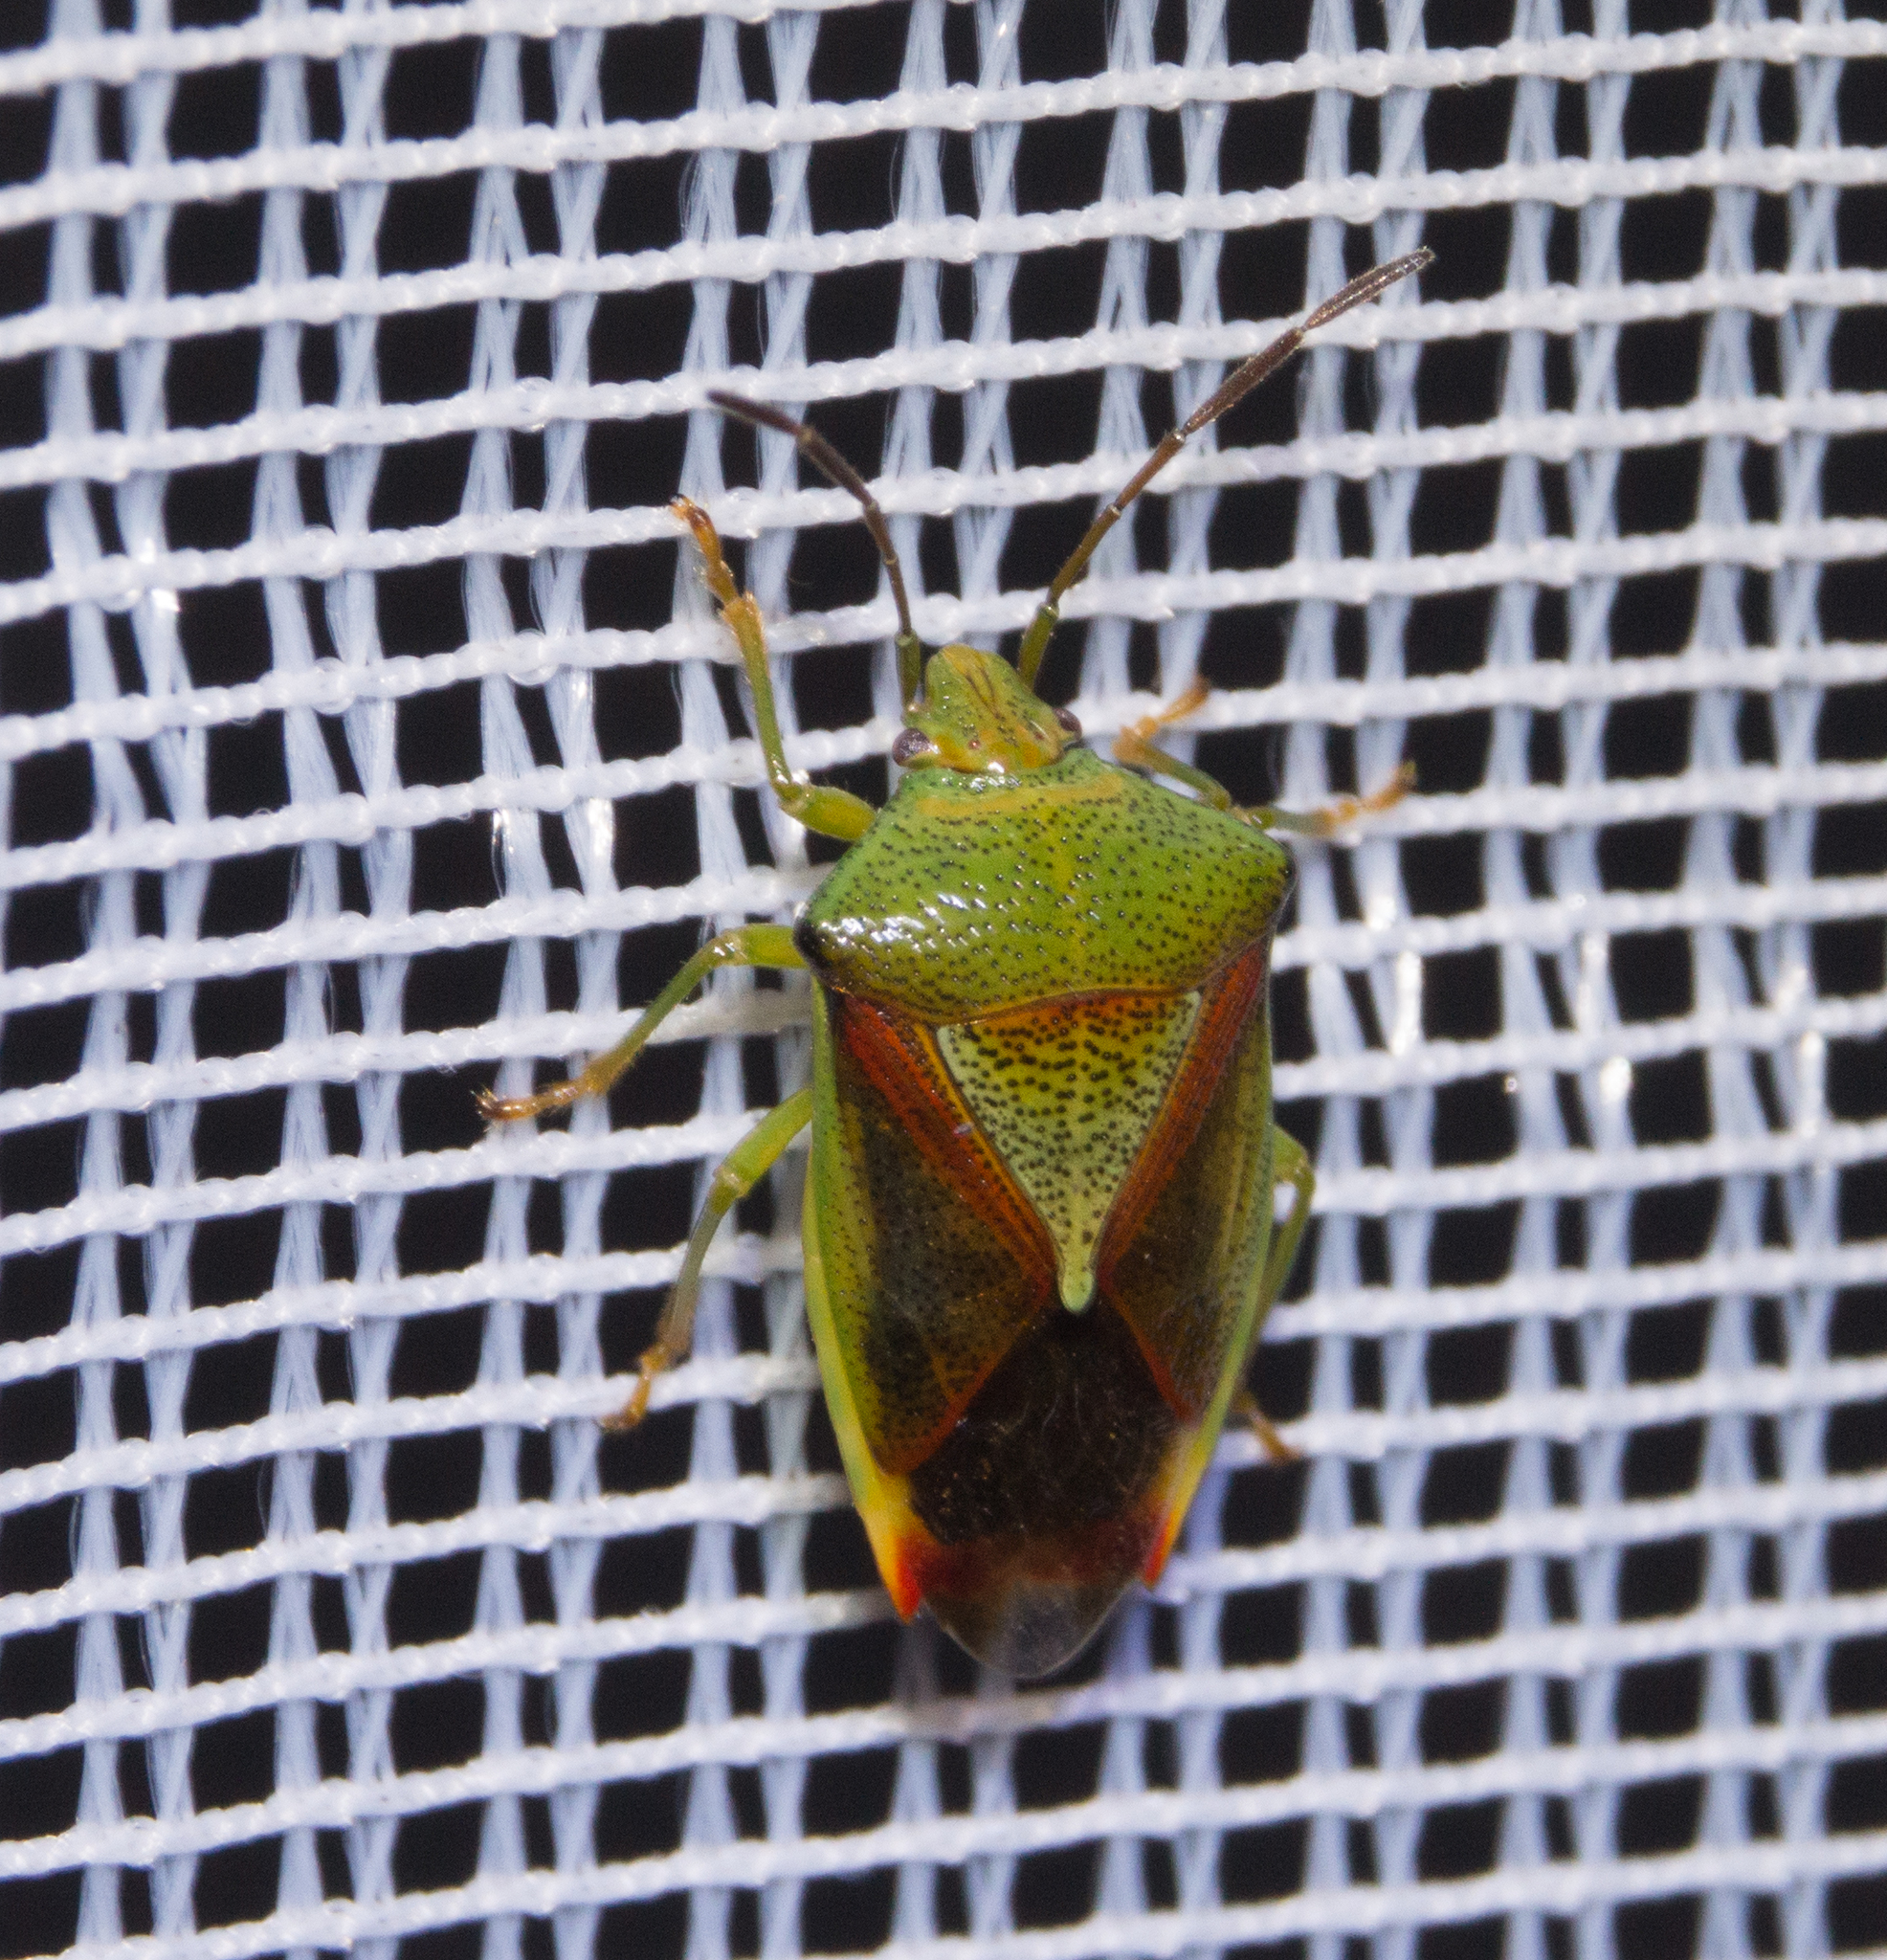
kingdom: Animalia
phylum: Arthropoda
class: Insecta
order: Hemiptera
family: Acanthosomatidae
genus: Elasmostethus
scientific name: Elasmostethus interstinctus
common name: Birch shieldbug
